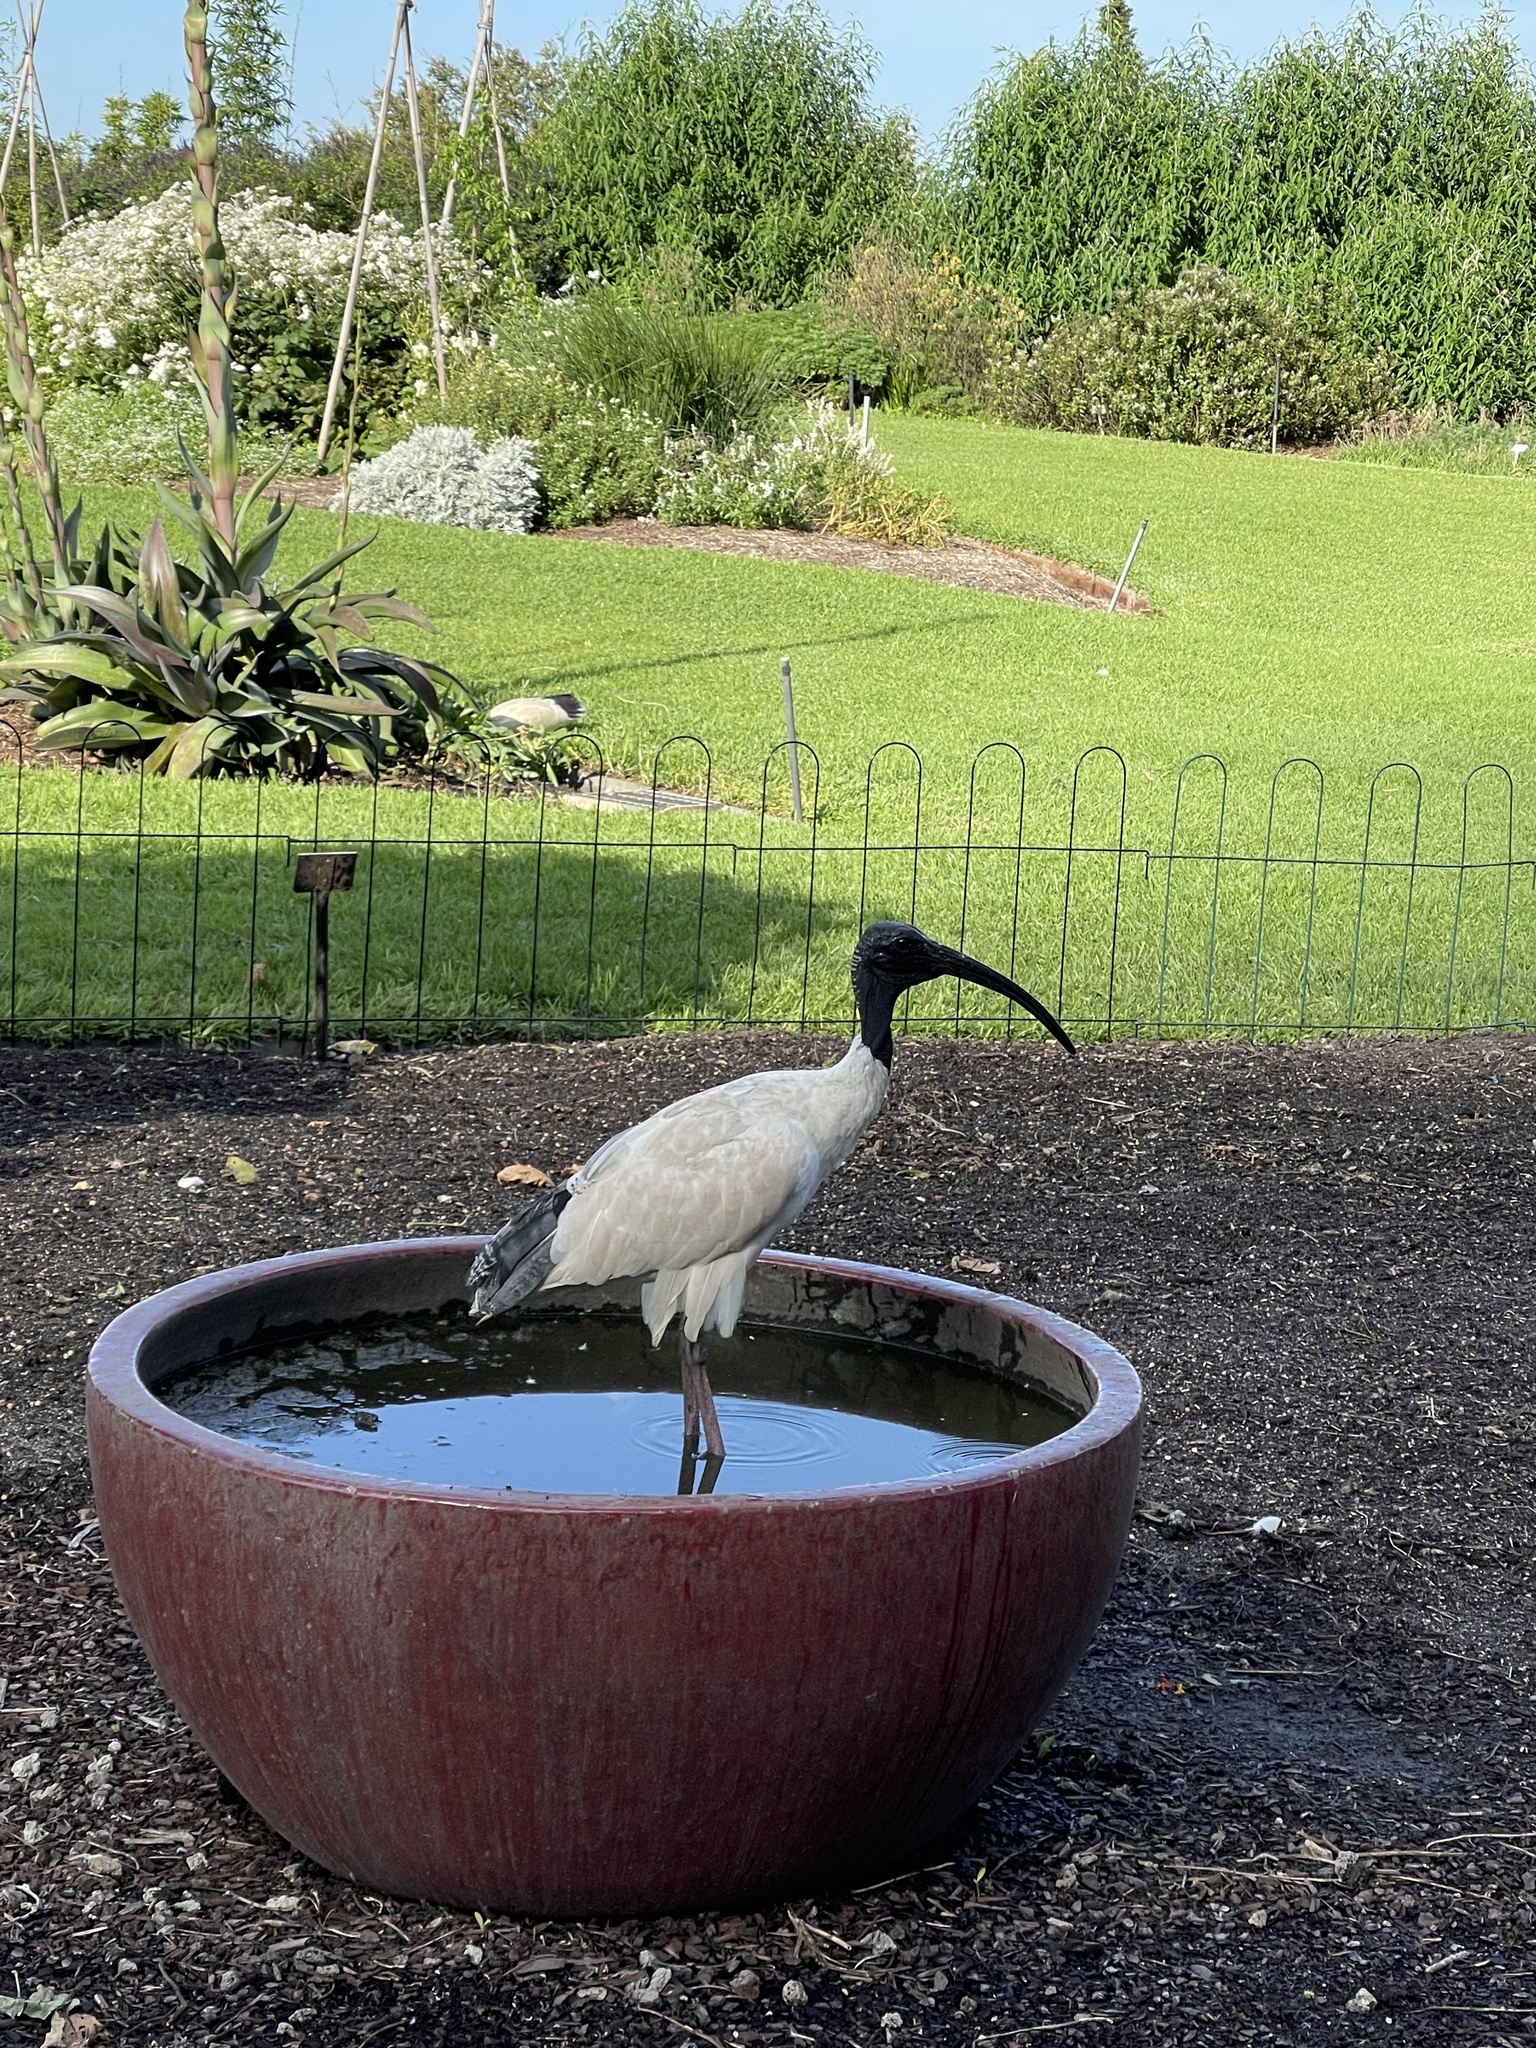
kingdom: Animalia
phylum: Chordata
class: Aves
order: Pelecaniformes
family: Threskiornithidae
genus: Threskiornis
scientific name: Threskiornis molucca
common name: Australian white ibis
